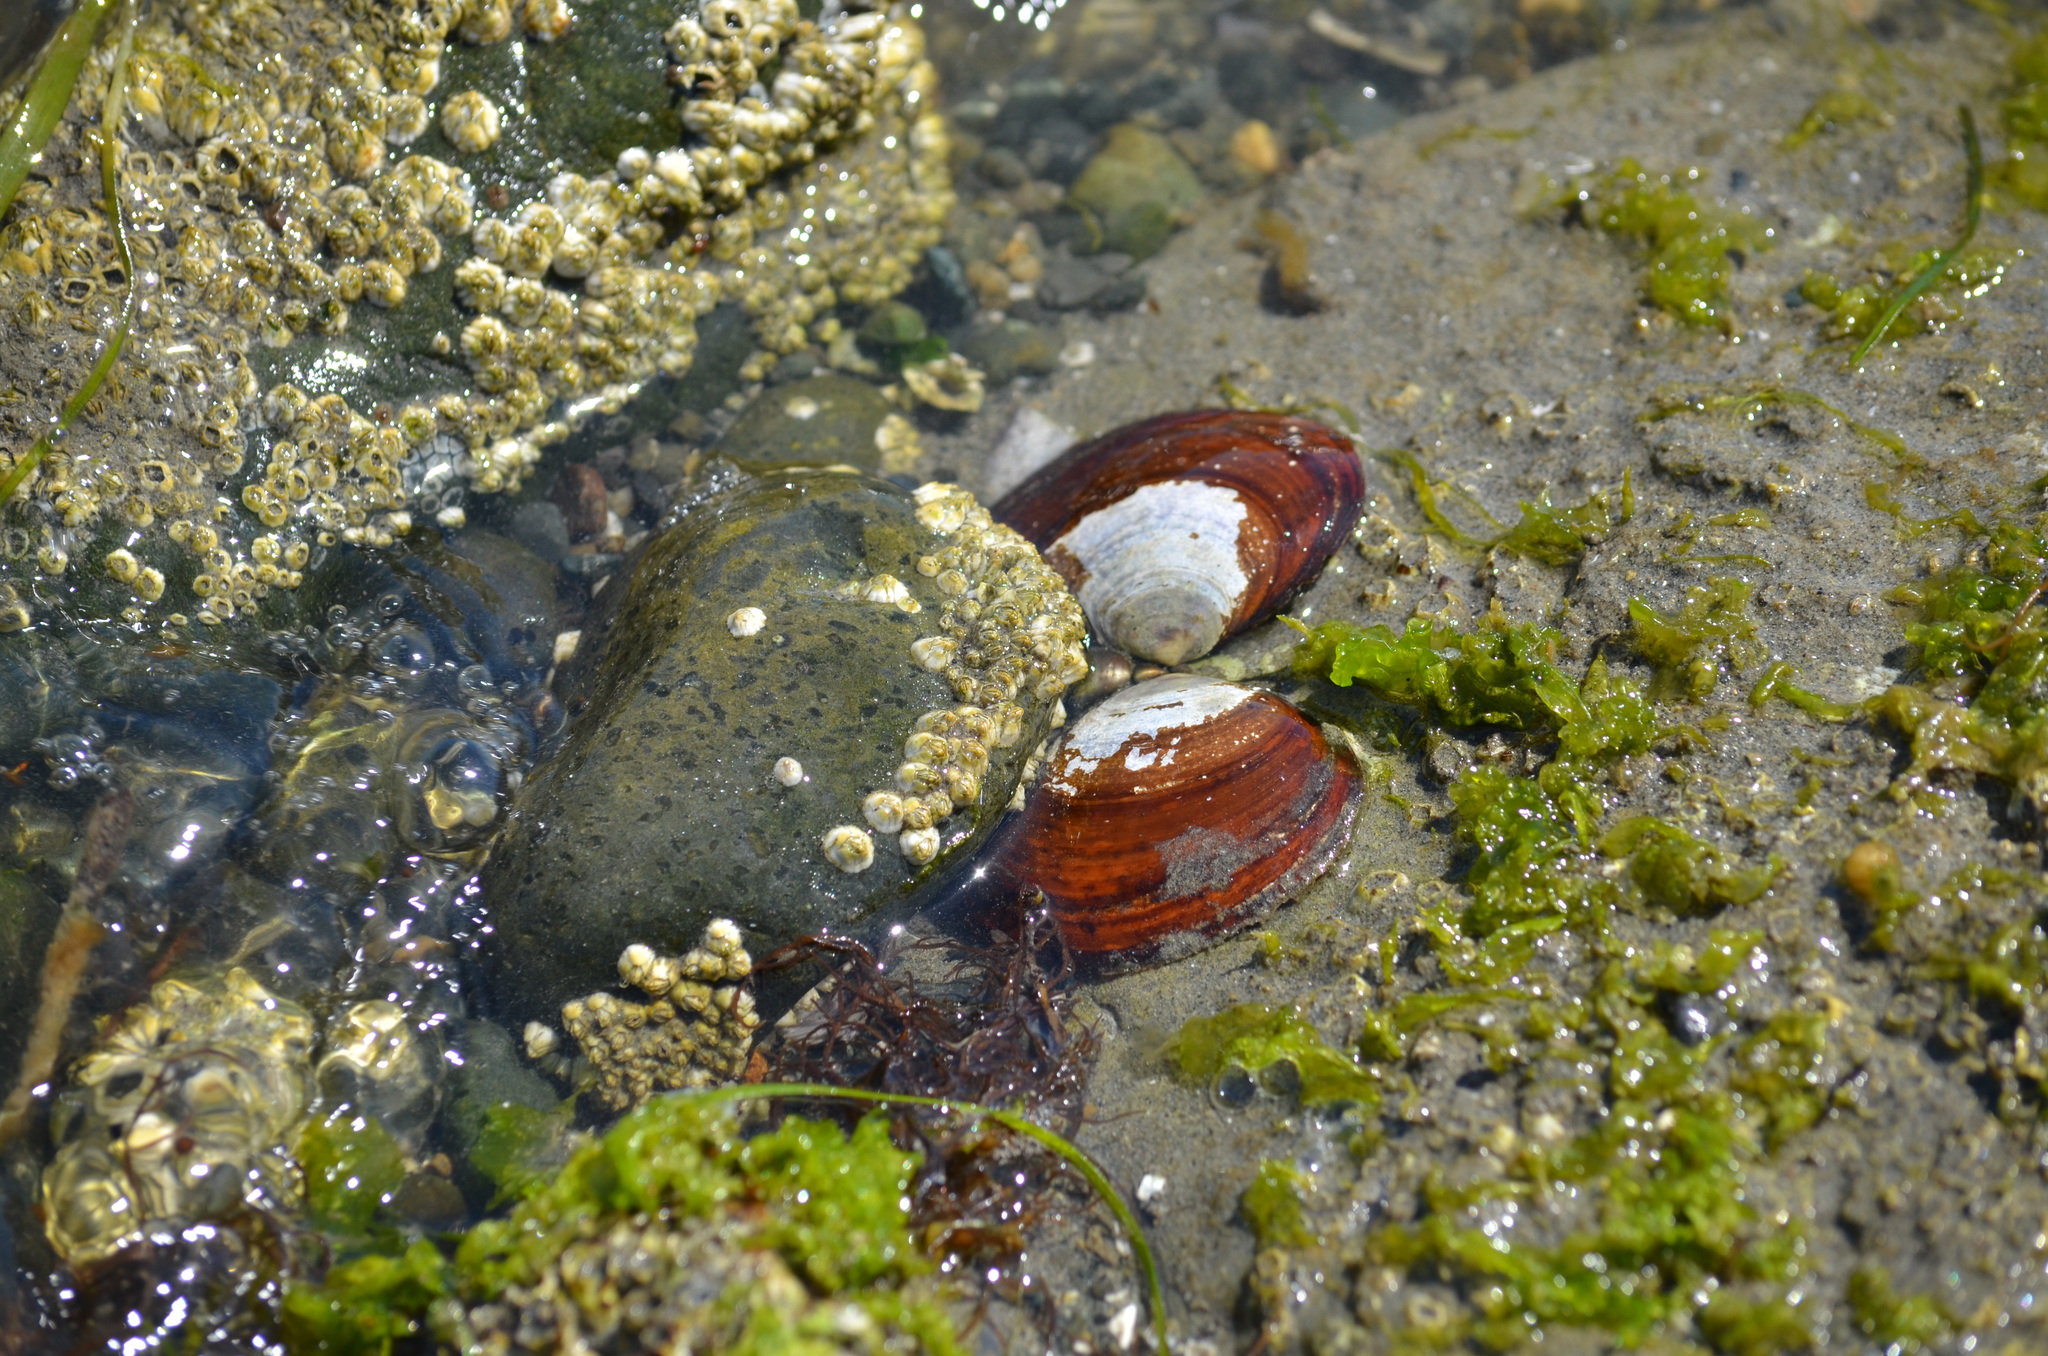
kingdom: Animalia
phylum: Mollusca
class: Bivalvia
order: Cardiida
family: Psammobiidae
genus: Nuttallia
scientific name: Nuttallia obscurata
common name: Purple mahogany-clam
